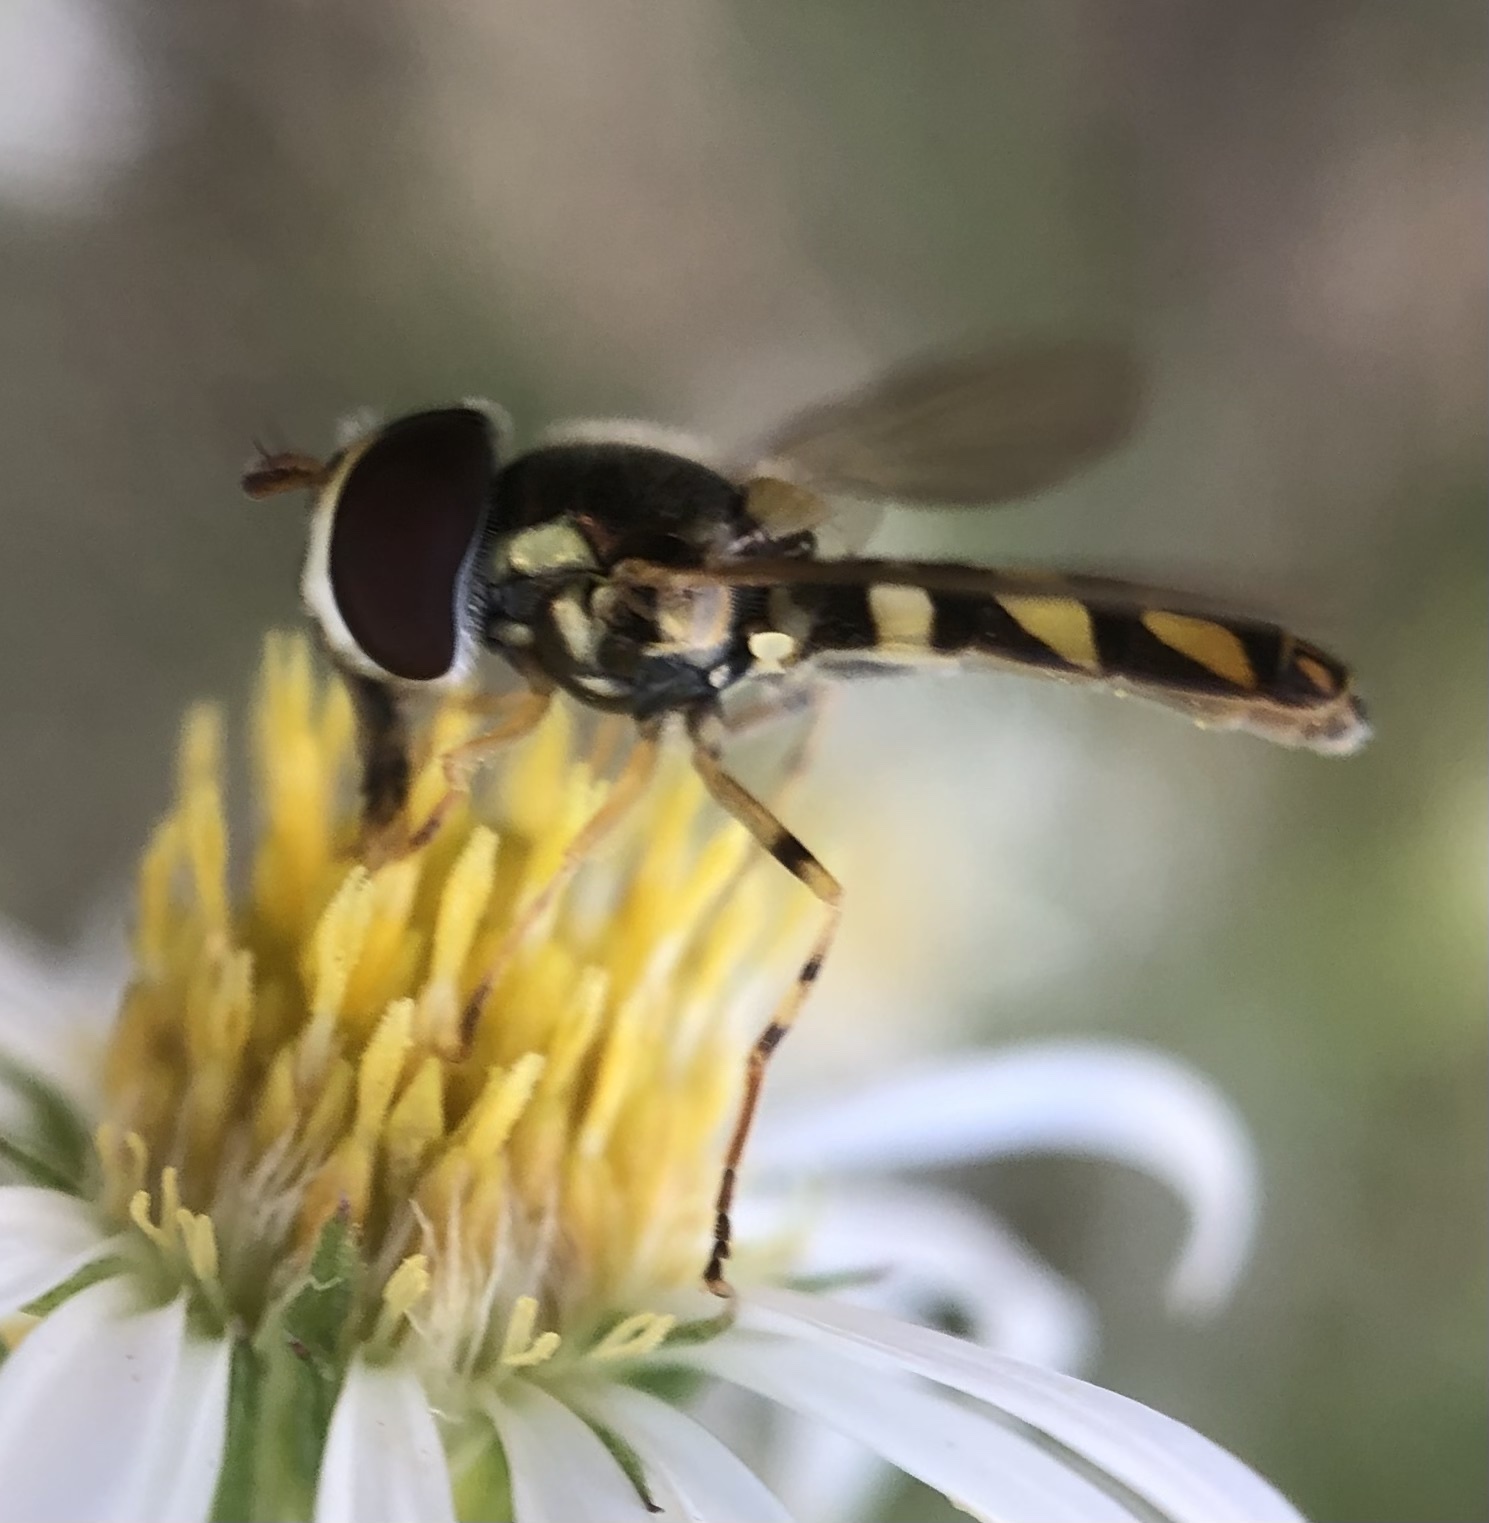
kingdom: Animalia
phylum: Arthropoda
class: Insecta
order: Diptera
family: Syrphidae
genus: Allograpta
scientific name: Allograpta exotica
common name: Syrphid fly
